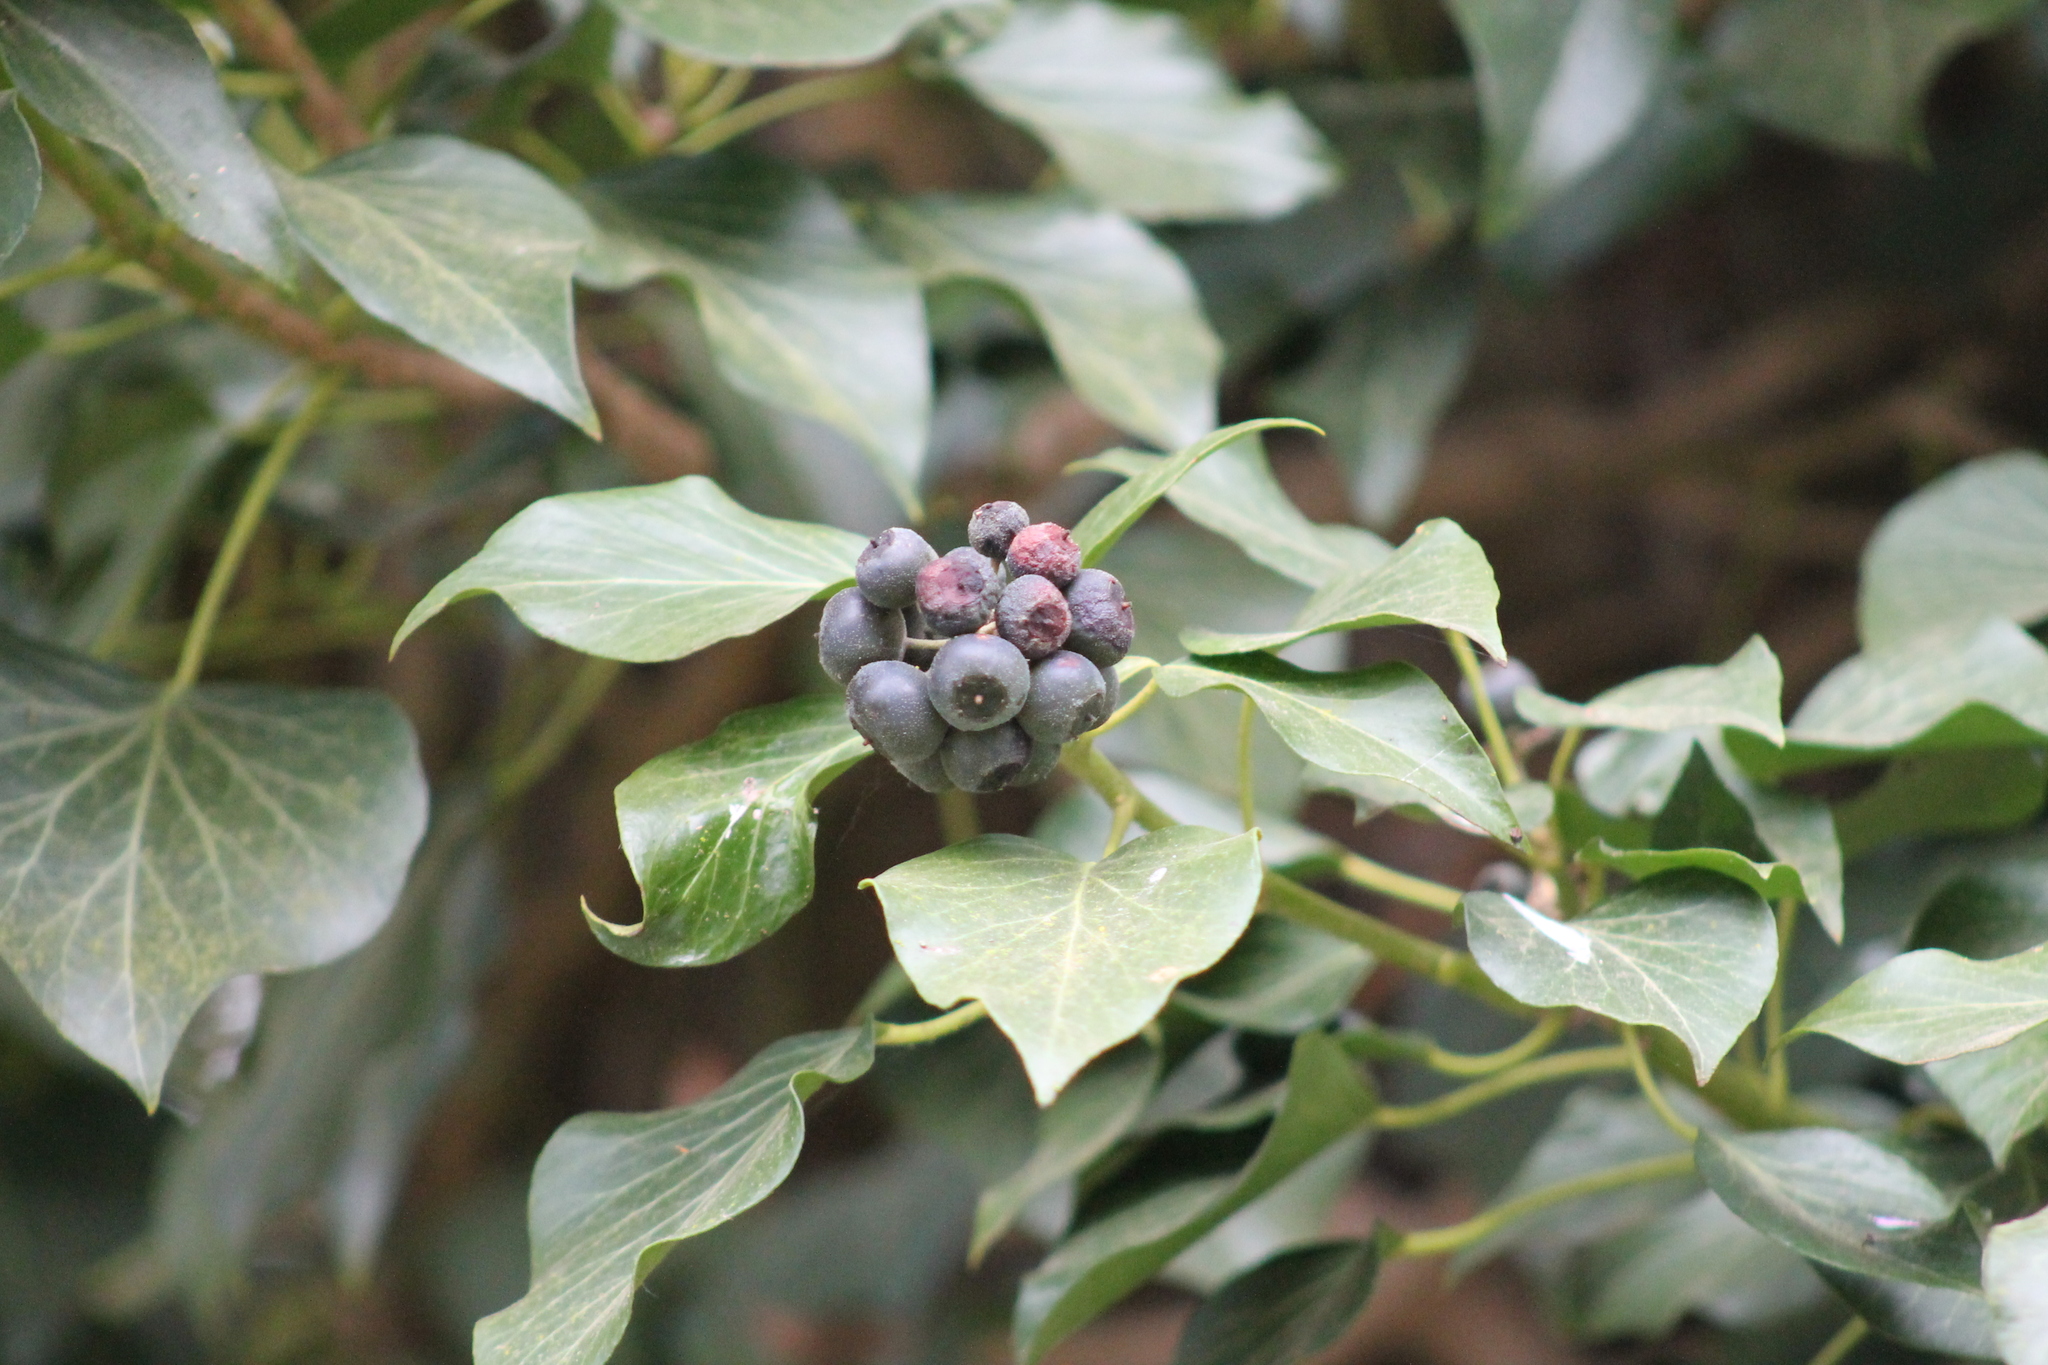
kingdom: Plantae
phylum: Tracheophyta
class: Magnoliopsida
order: Apiales
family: Araliaceae
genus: Hedera
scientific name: Hedera helix
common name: Ivy
